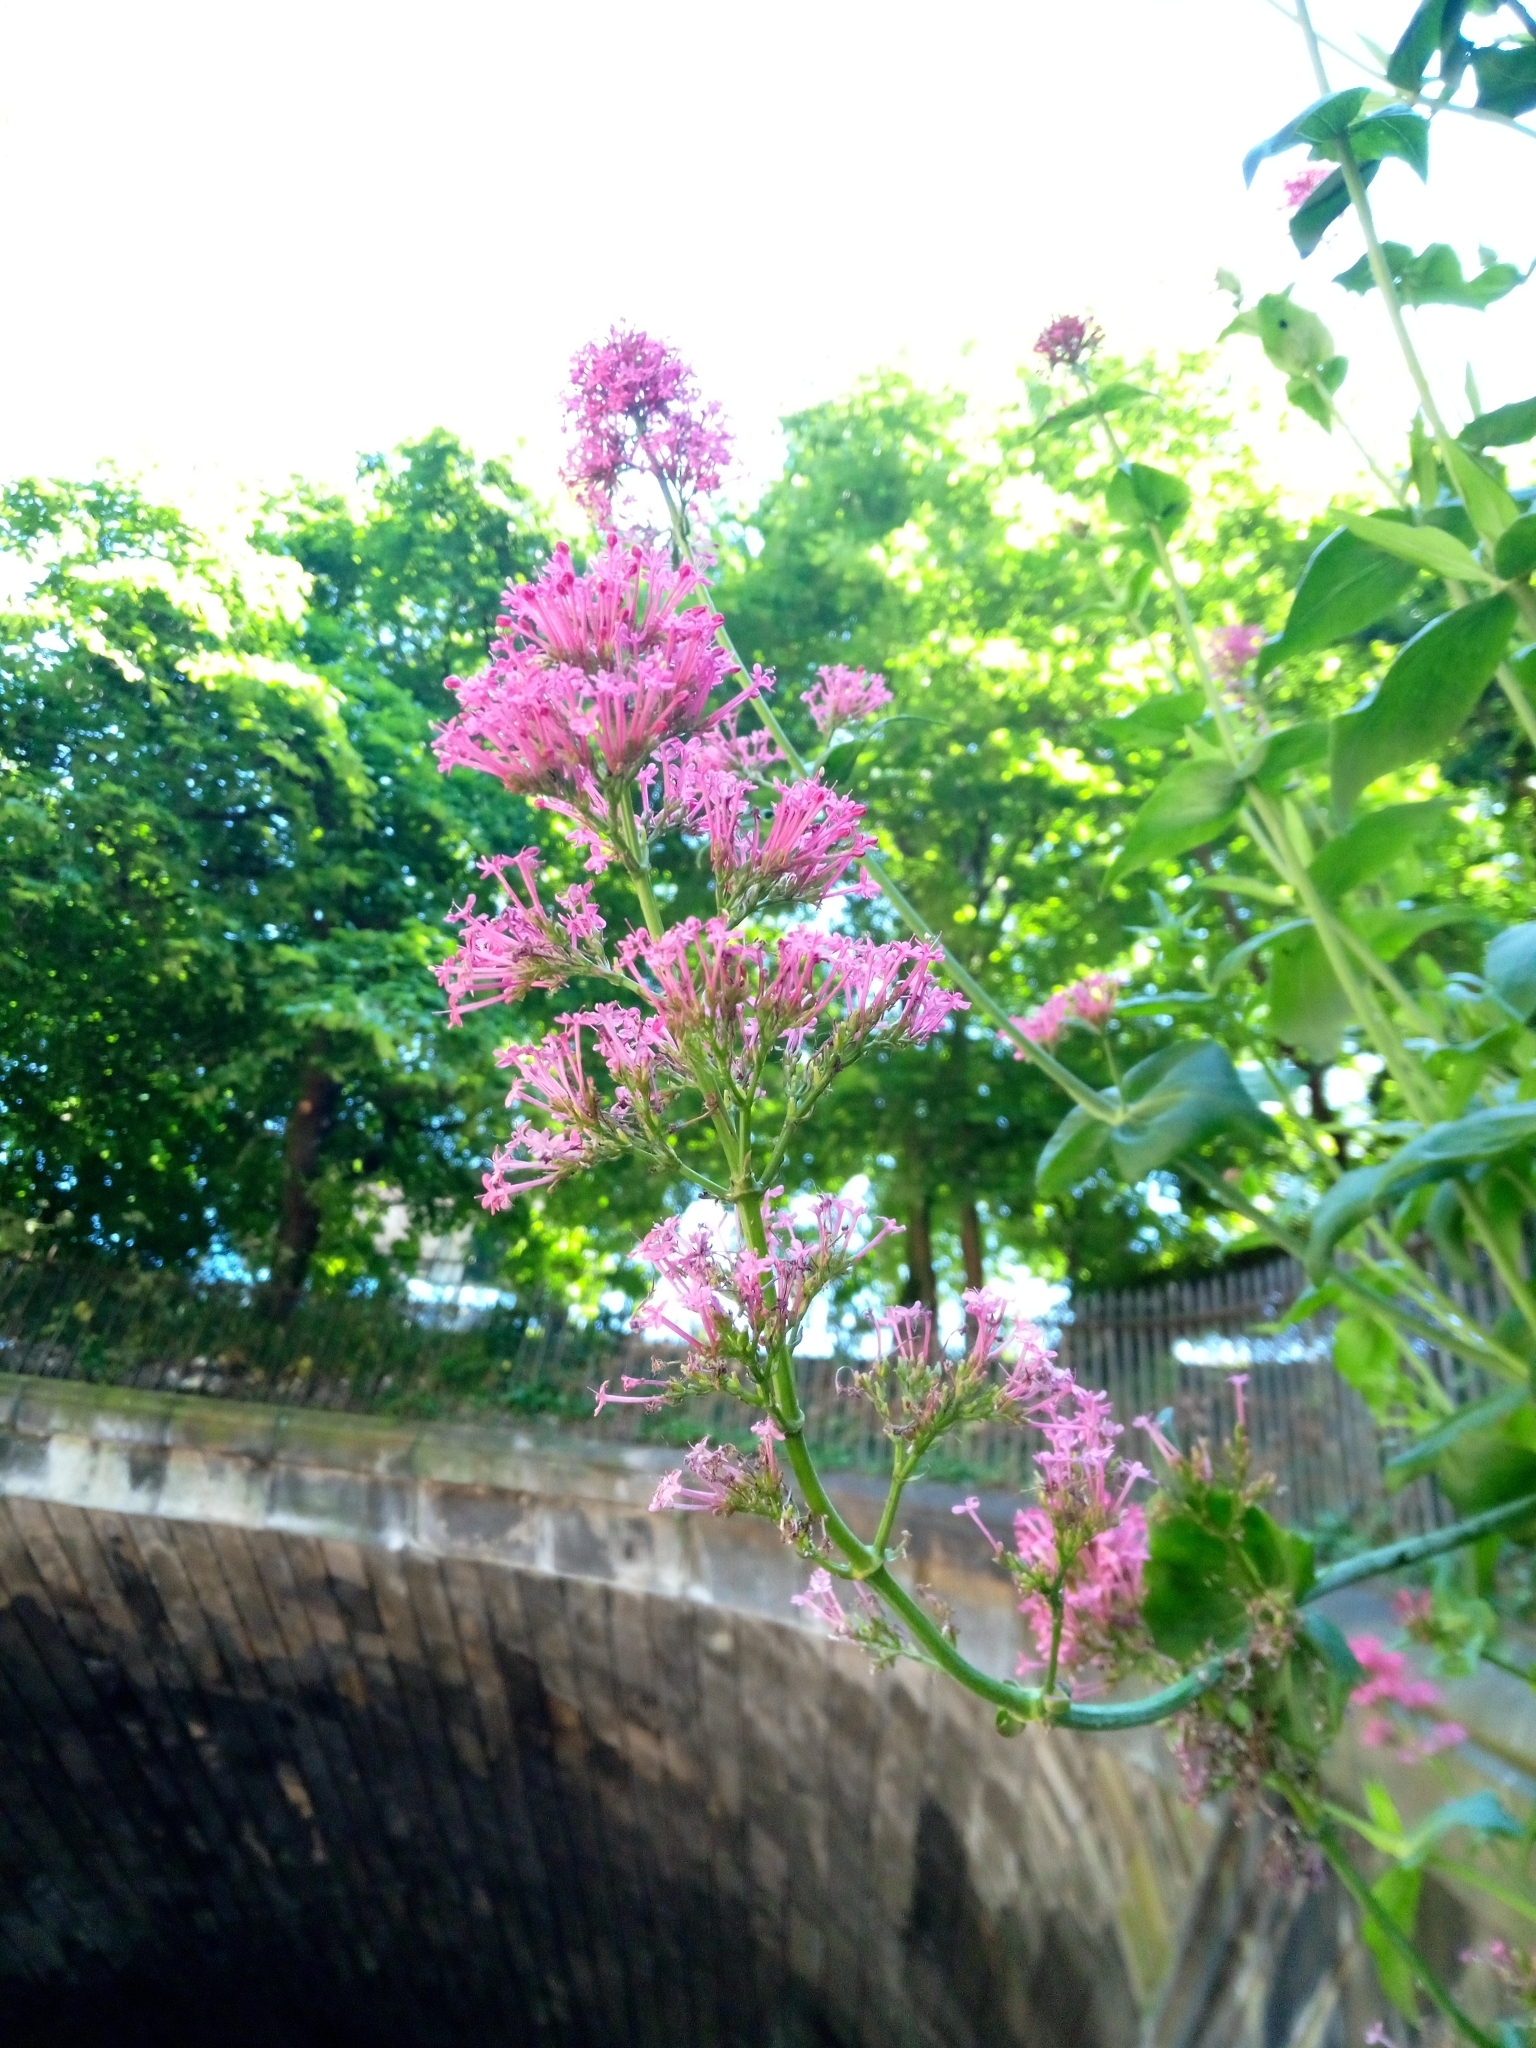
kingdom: Plantae
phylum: Tracheophyta
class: Magnoliopsida
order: Dipsacales
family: Caprifoliaceae
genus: Centranthus
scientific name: Centranthus ruber
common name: Red valerian
